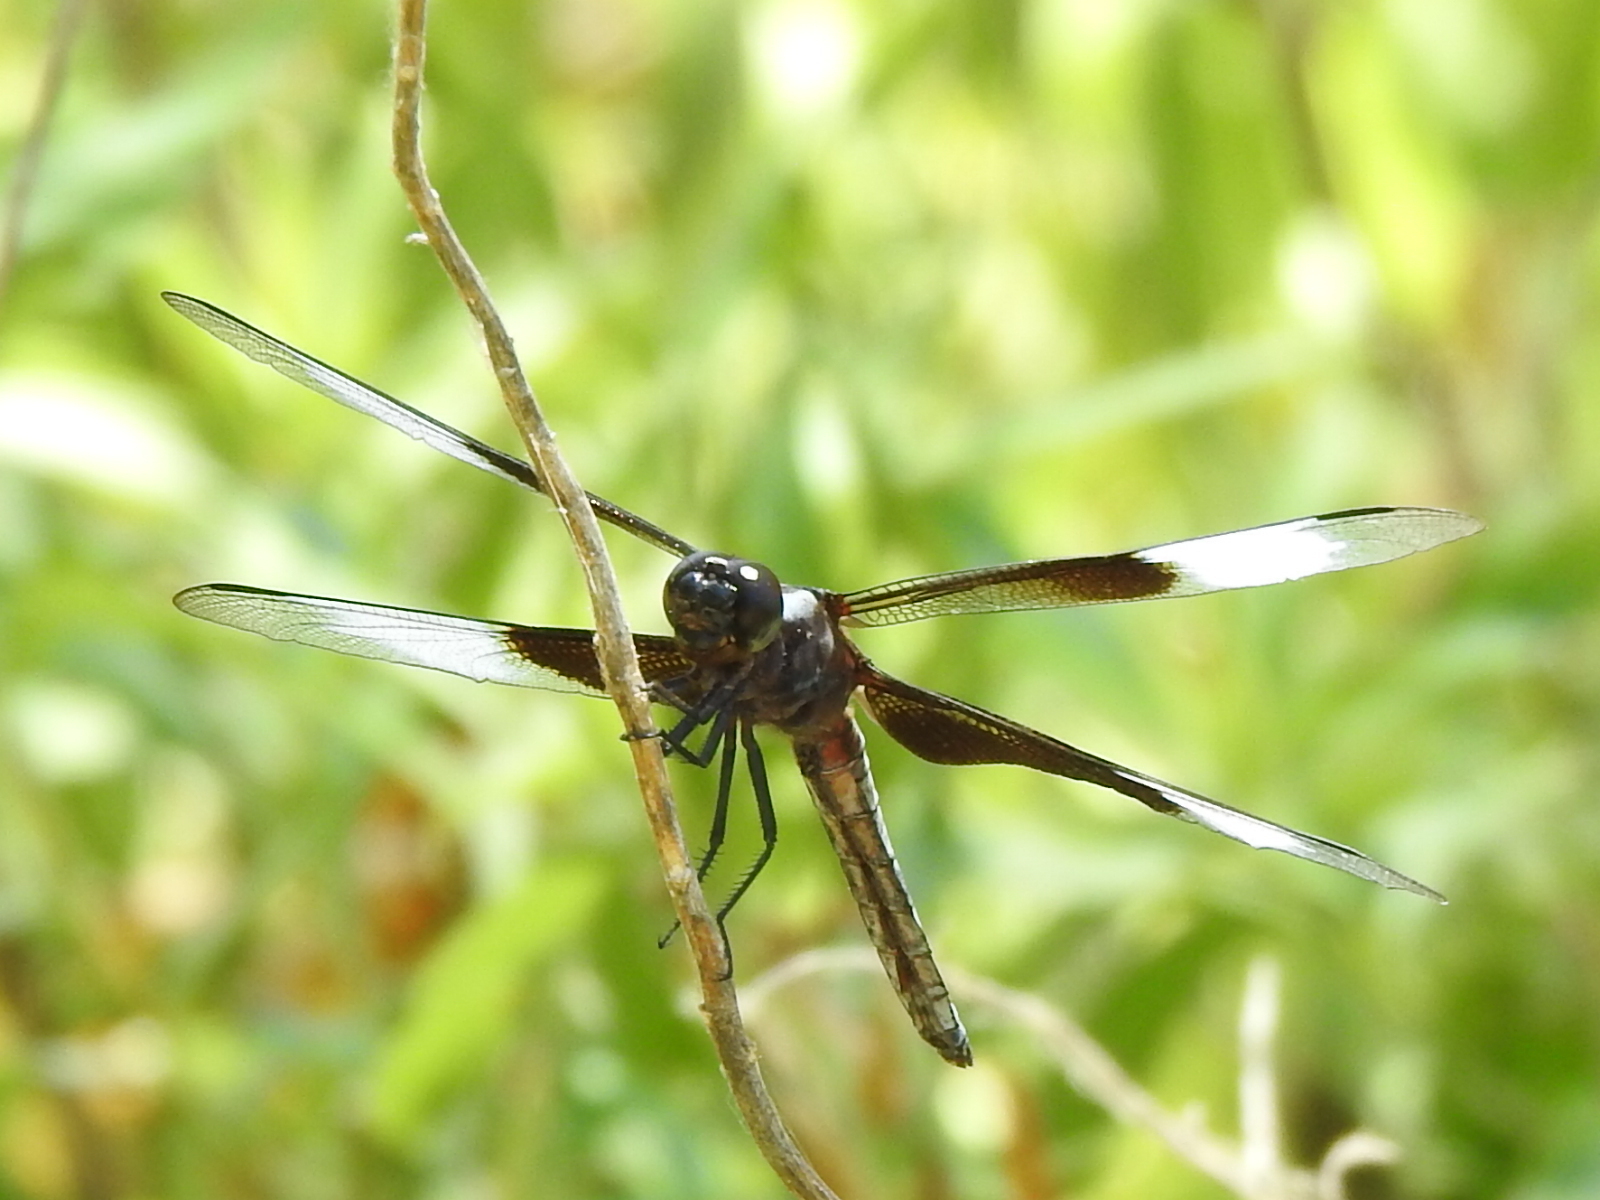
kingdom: Animalia
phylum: Arthropoda
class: Insecta
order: Odonata
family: Libellulidae
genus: Libellula
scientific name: Libellula luctuosa
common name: Widow skimmer
